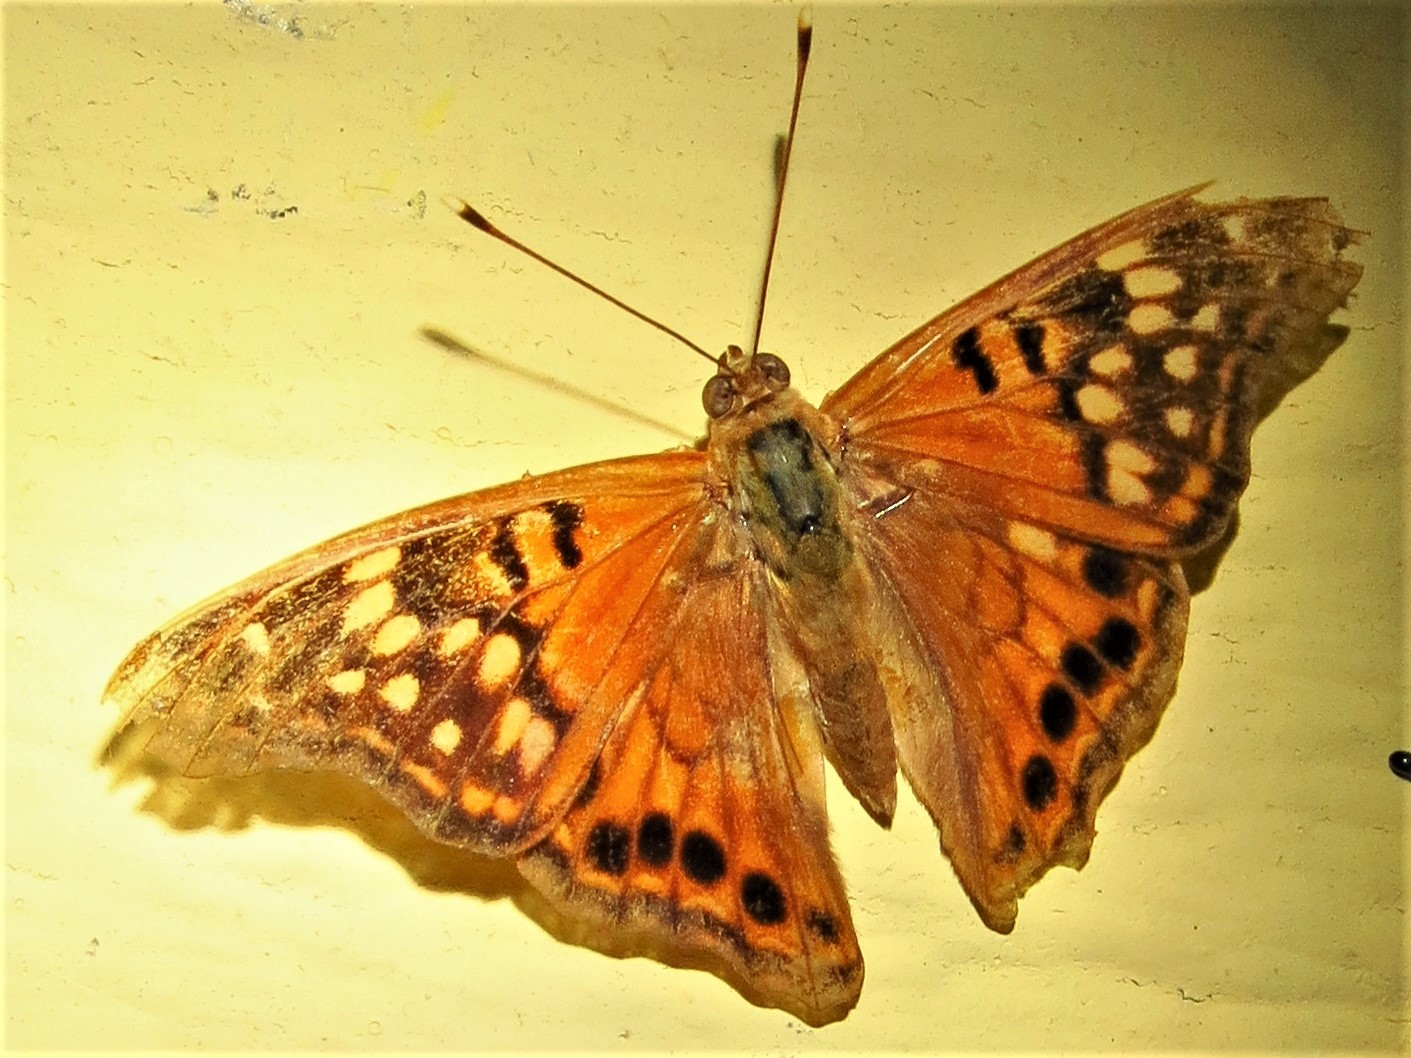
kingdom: Animalia
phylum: Arthropoda
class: Insecta
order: Lepidoptera
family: Nymphalidae
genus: Asterocampa
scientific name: Asterocampa clyton
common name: Tawny emperor
